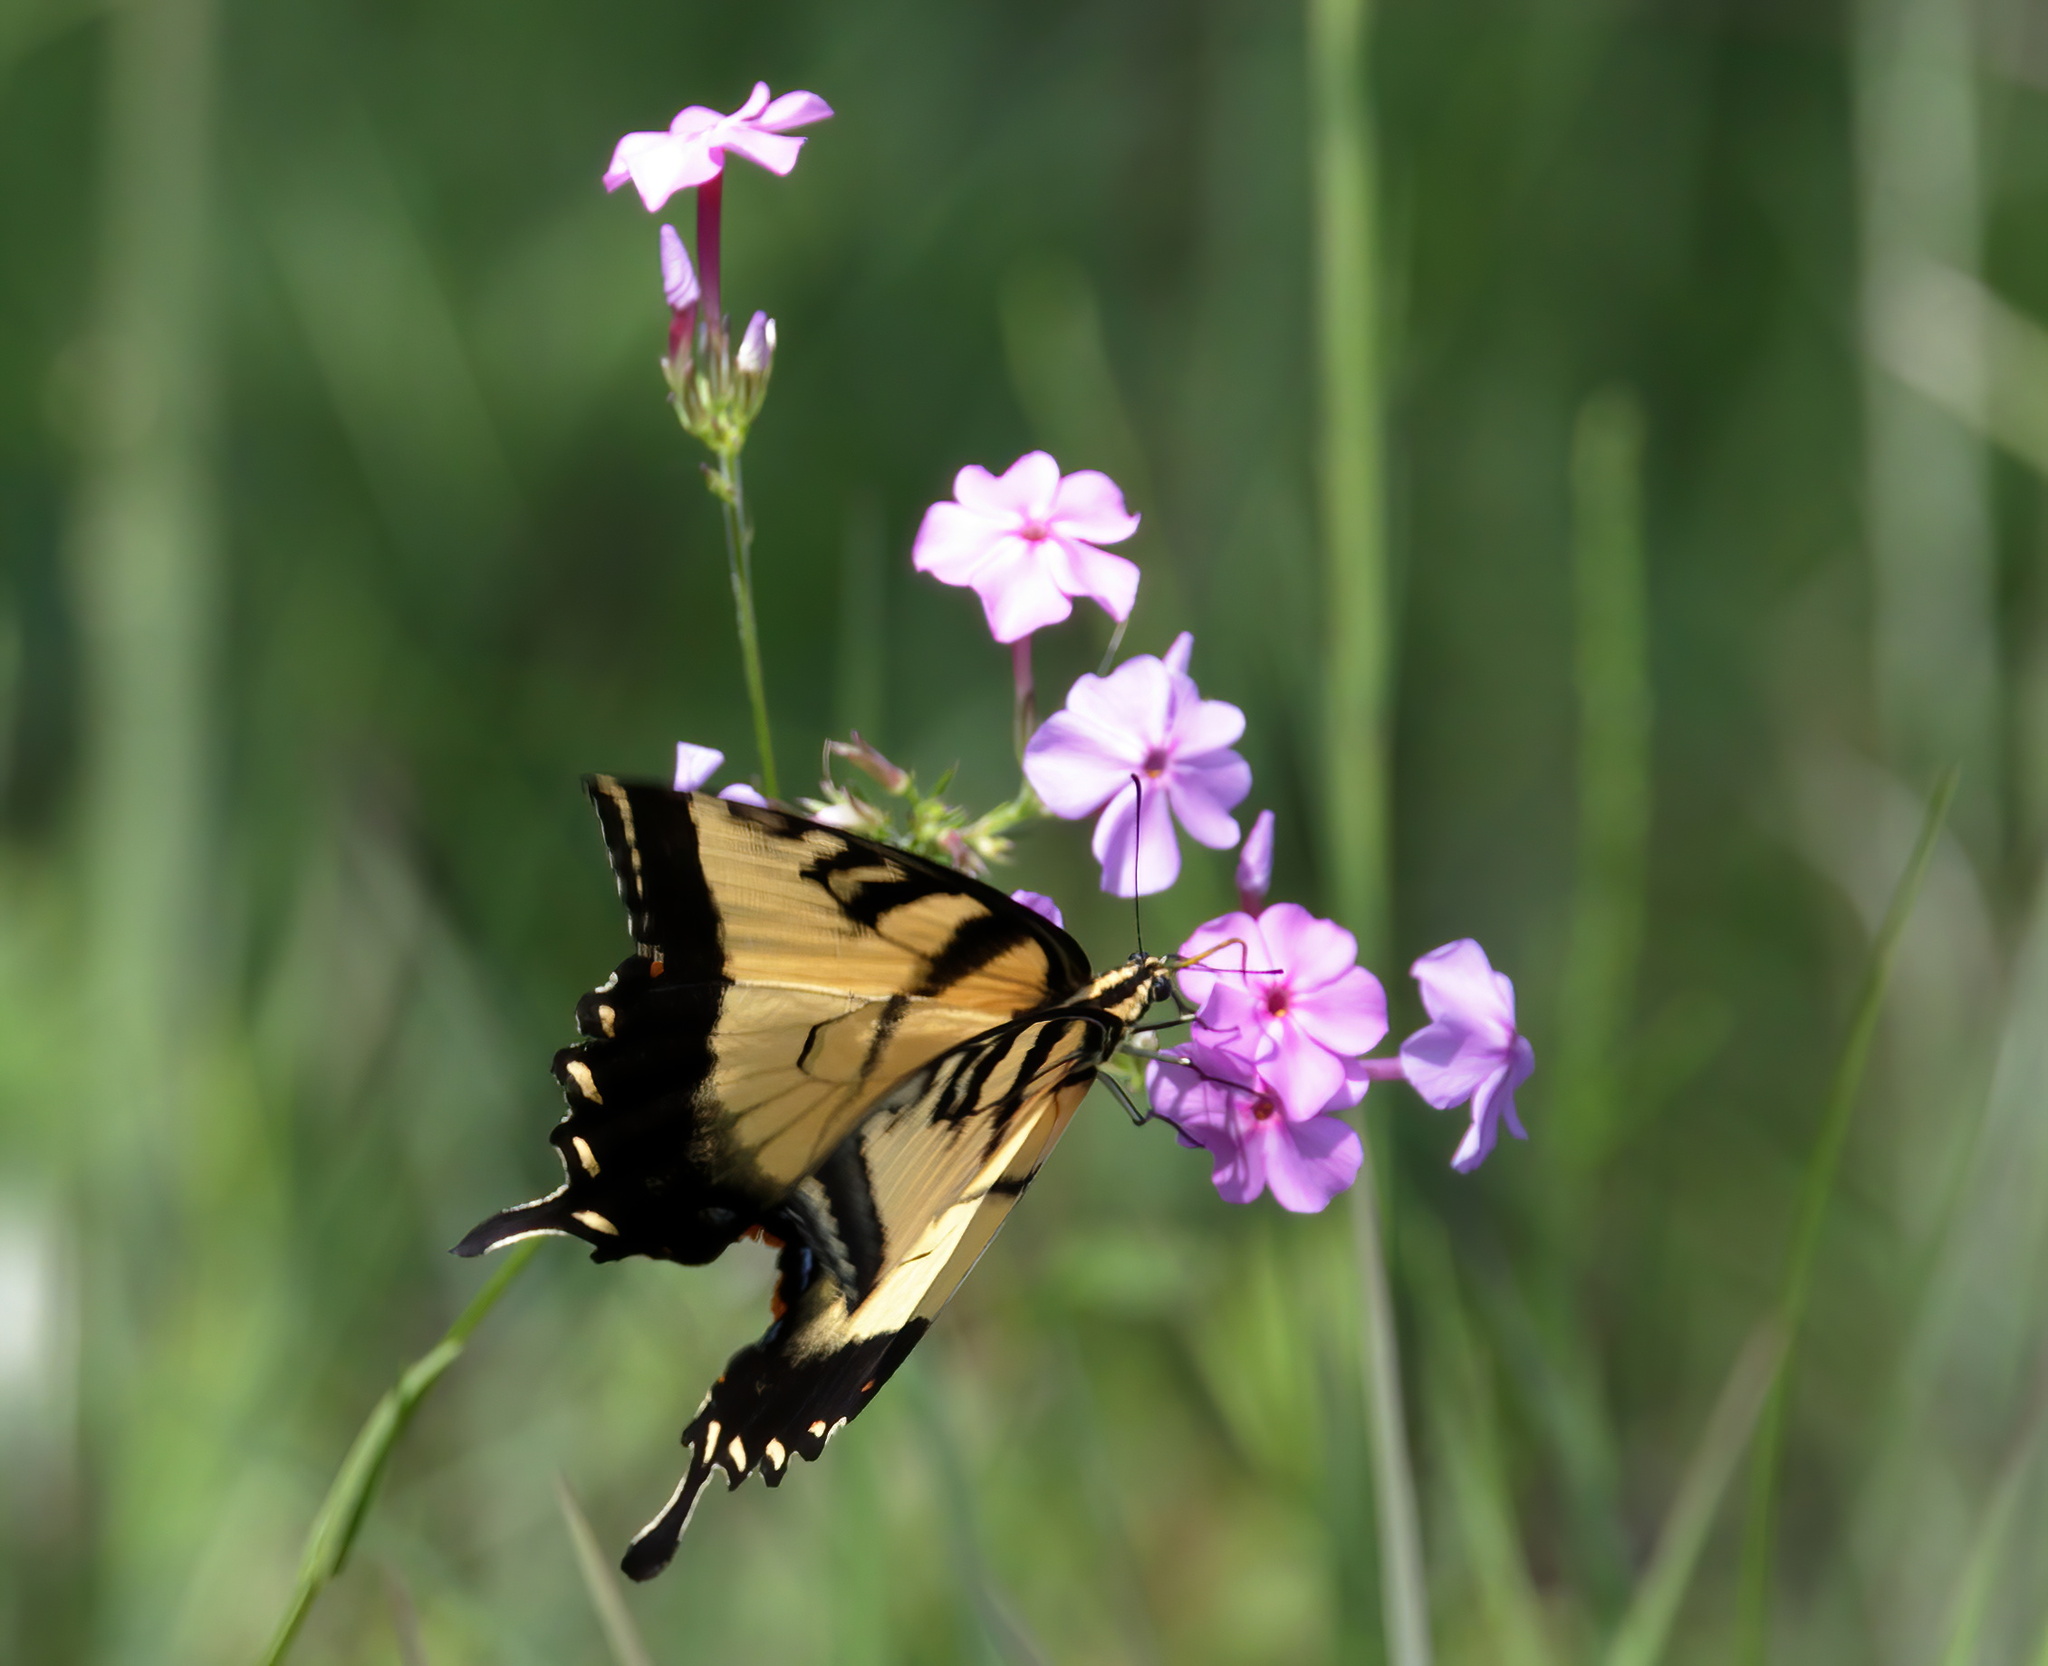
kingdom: Animalia
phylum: Arthropoda
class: Insecta
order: Lepidoptera
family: Papilionidae
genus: Papilio
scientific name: Papilio glaucus
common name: Tiger swallowtail
